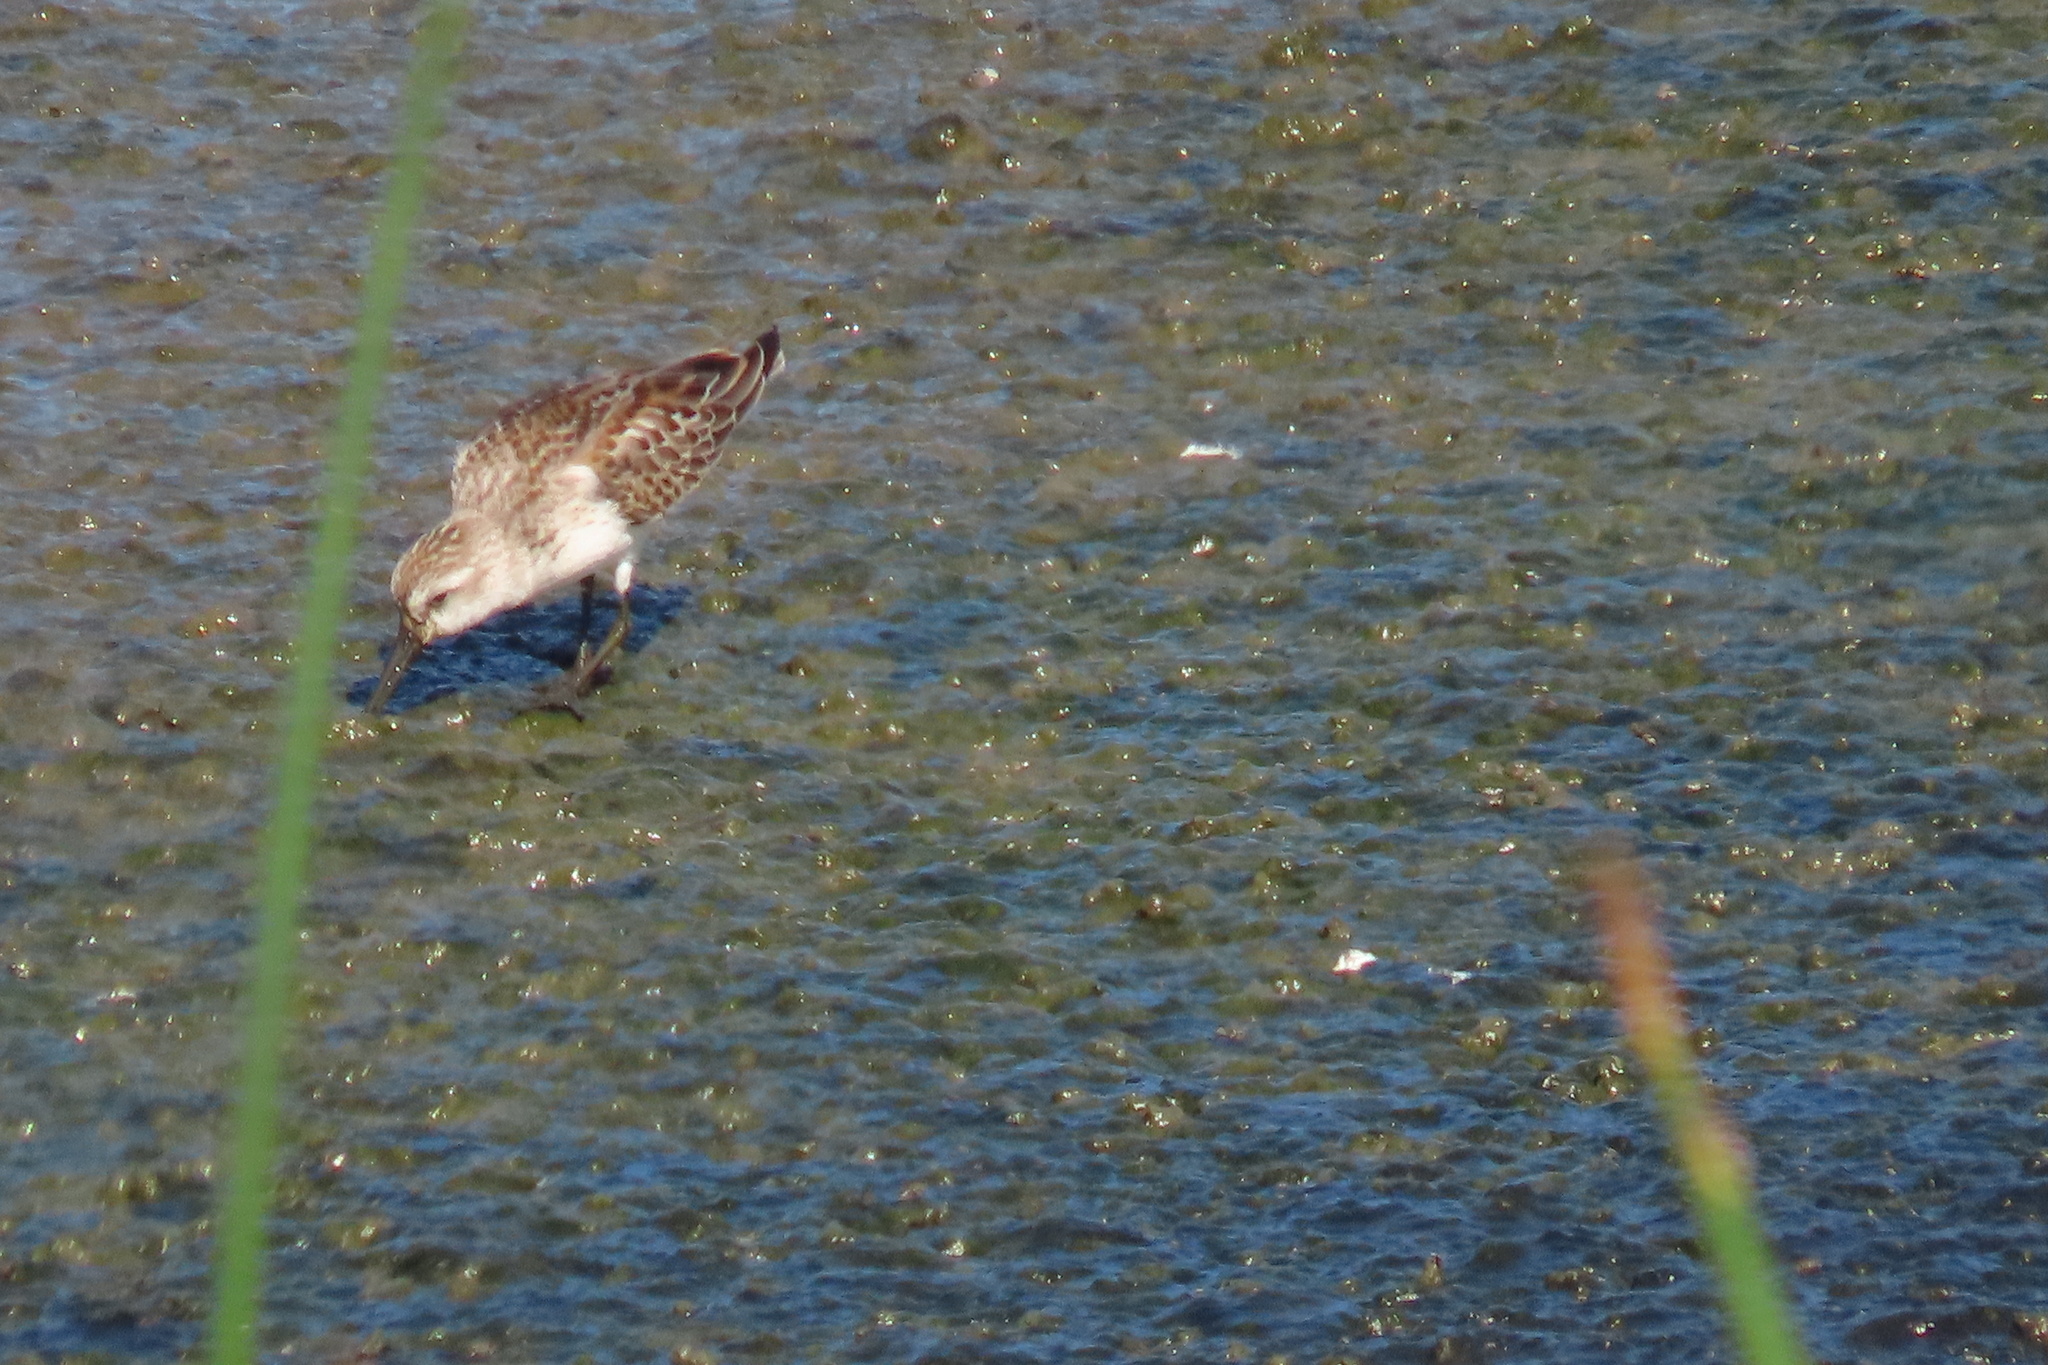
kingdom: Animalia
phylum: Chordata
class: Aves
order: Charadriiformes
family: Scolopacidae
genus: Calidris
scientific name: Calidris mauri
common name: Western sandpiper
